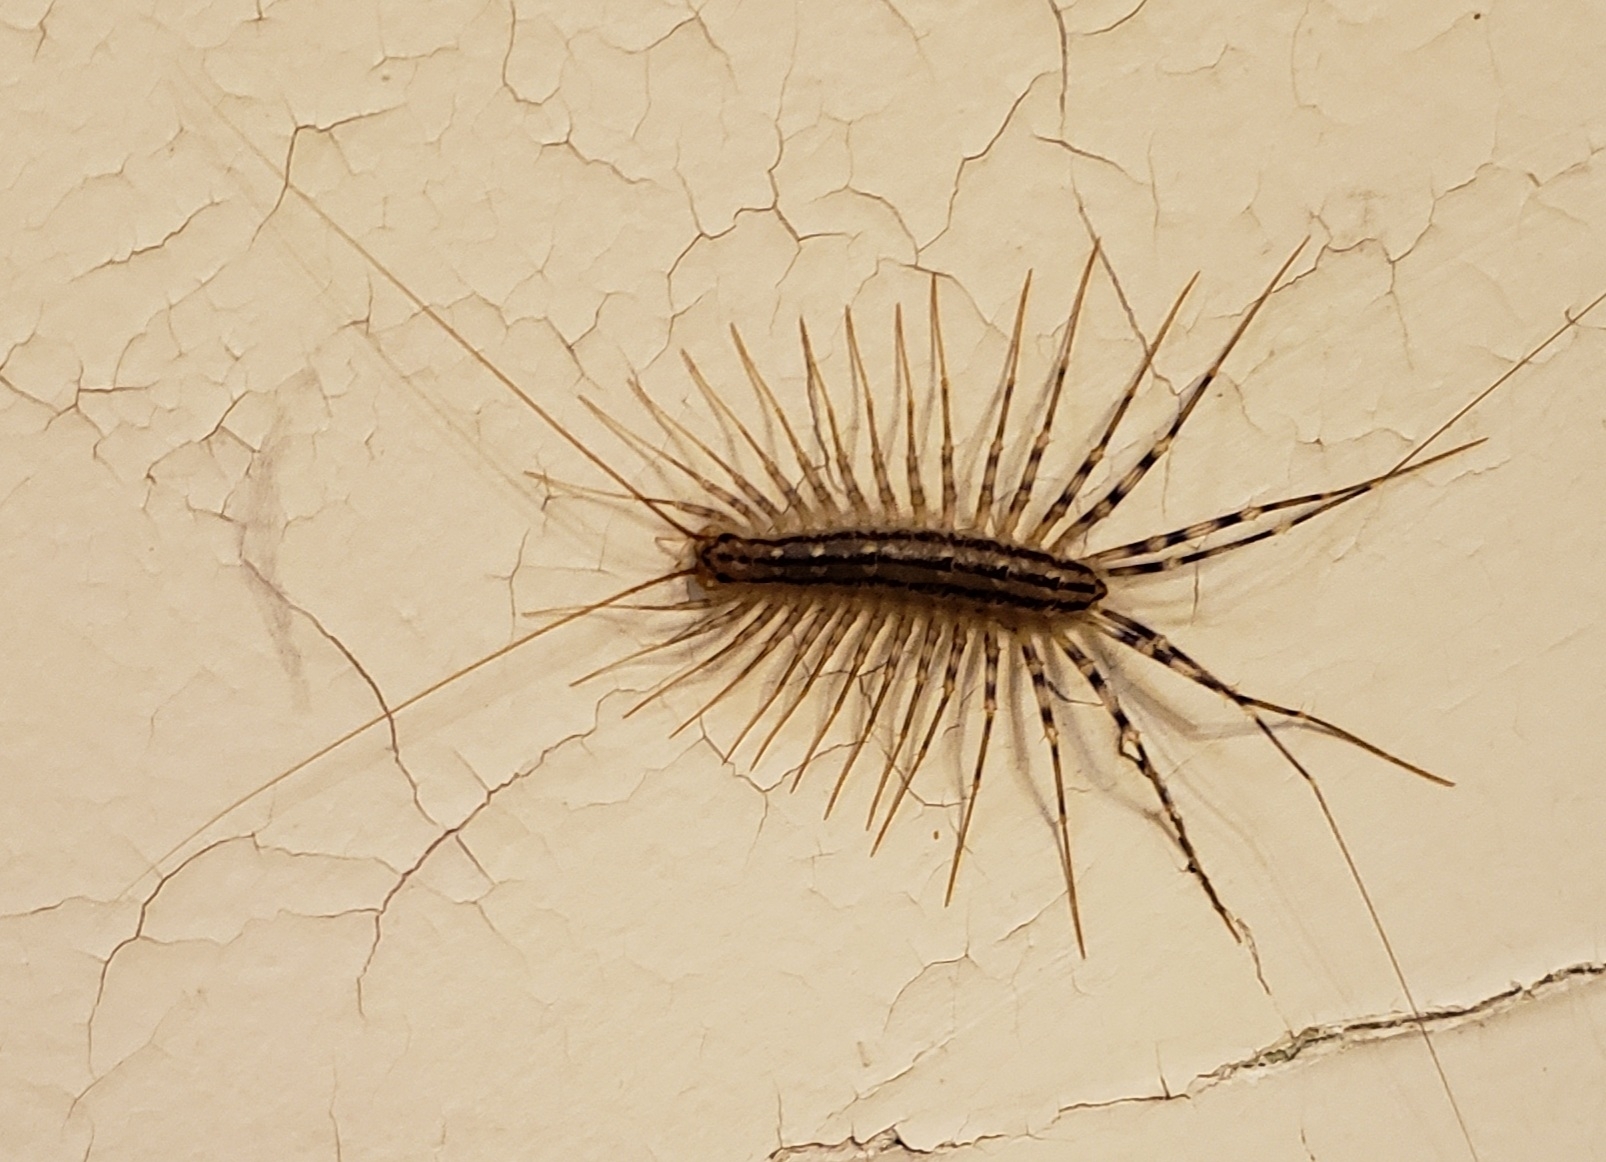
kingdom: Animalia
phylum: Arthropoda
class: Chilopoda
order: Scutigeromorpha
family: Scutigeridae
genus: Scutigera
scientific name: Scutigera coleoptrata
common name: House centipede
